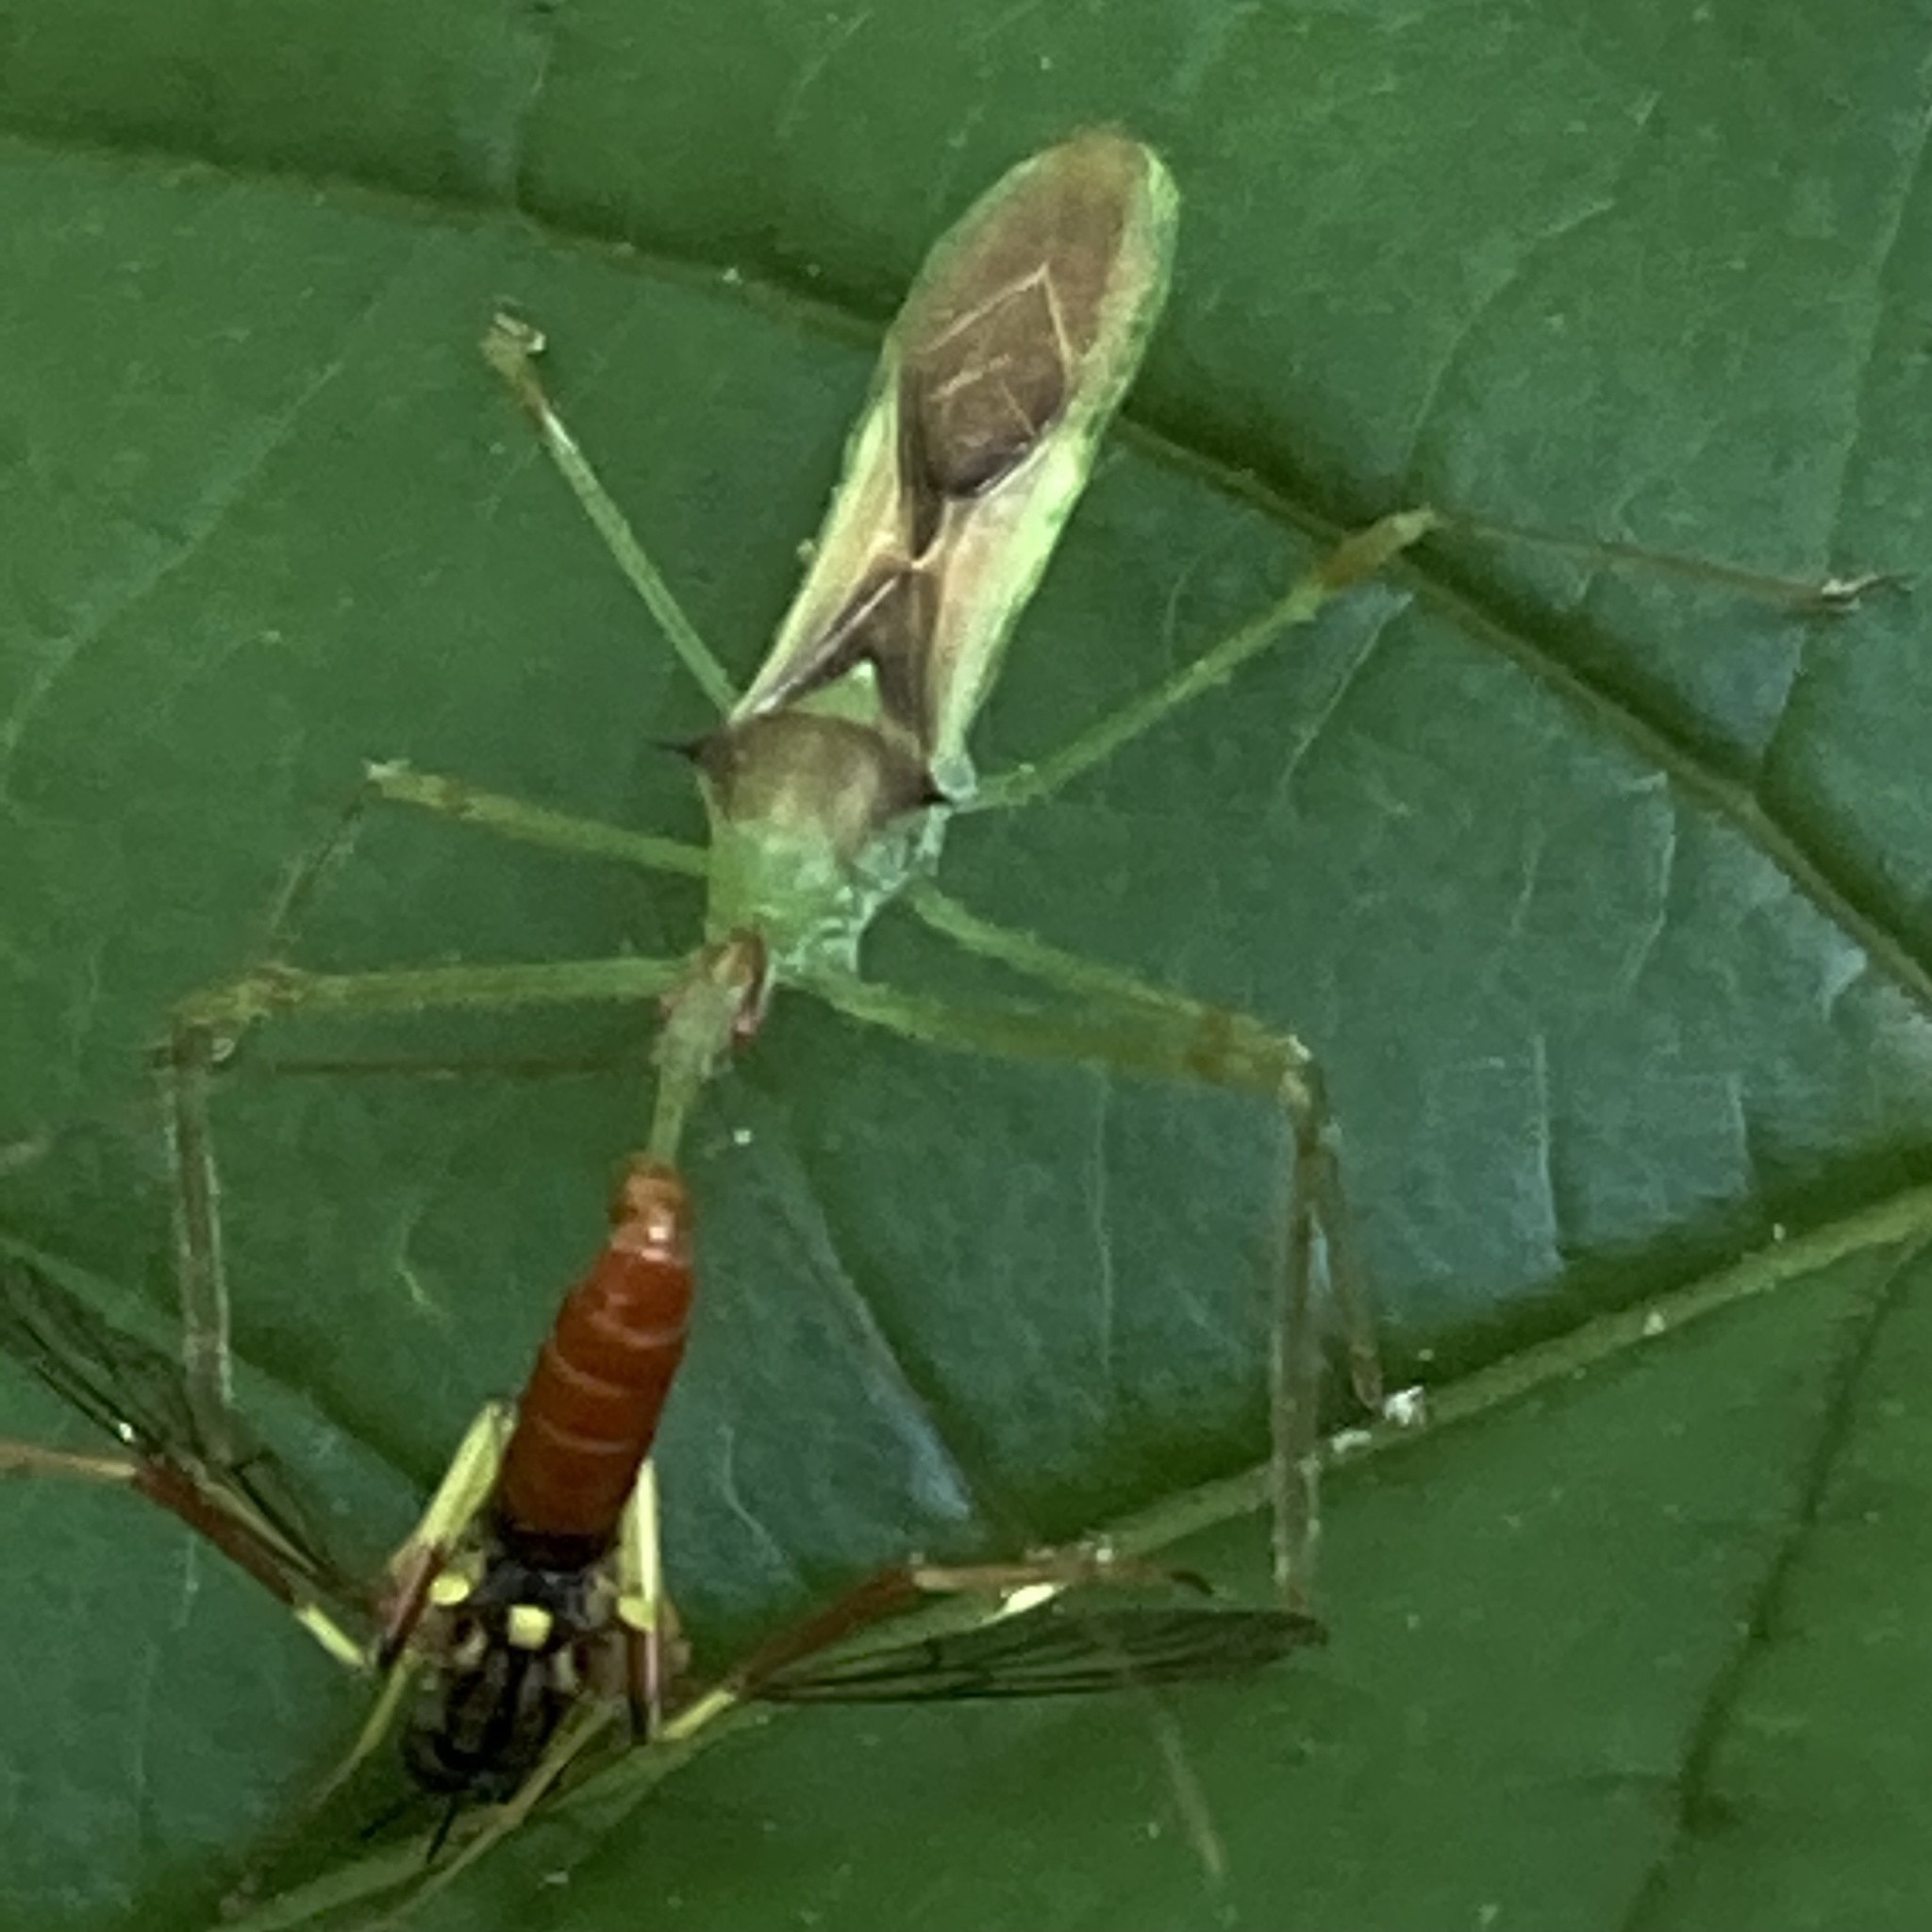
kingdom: Animalia
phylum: Arthropoda
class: Insecta
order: Hemiptera
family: Reduviidae
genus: Zelus
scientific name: Zelus luridus
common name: Pale green assassin bug
